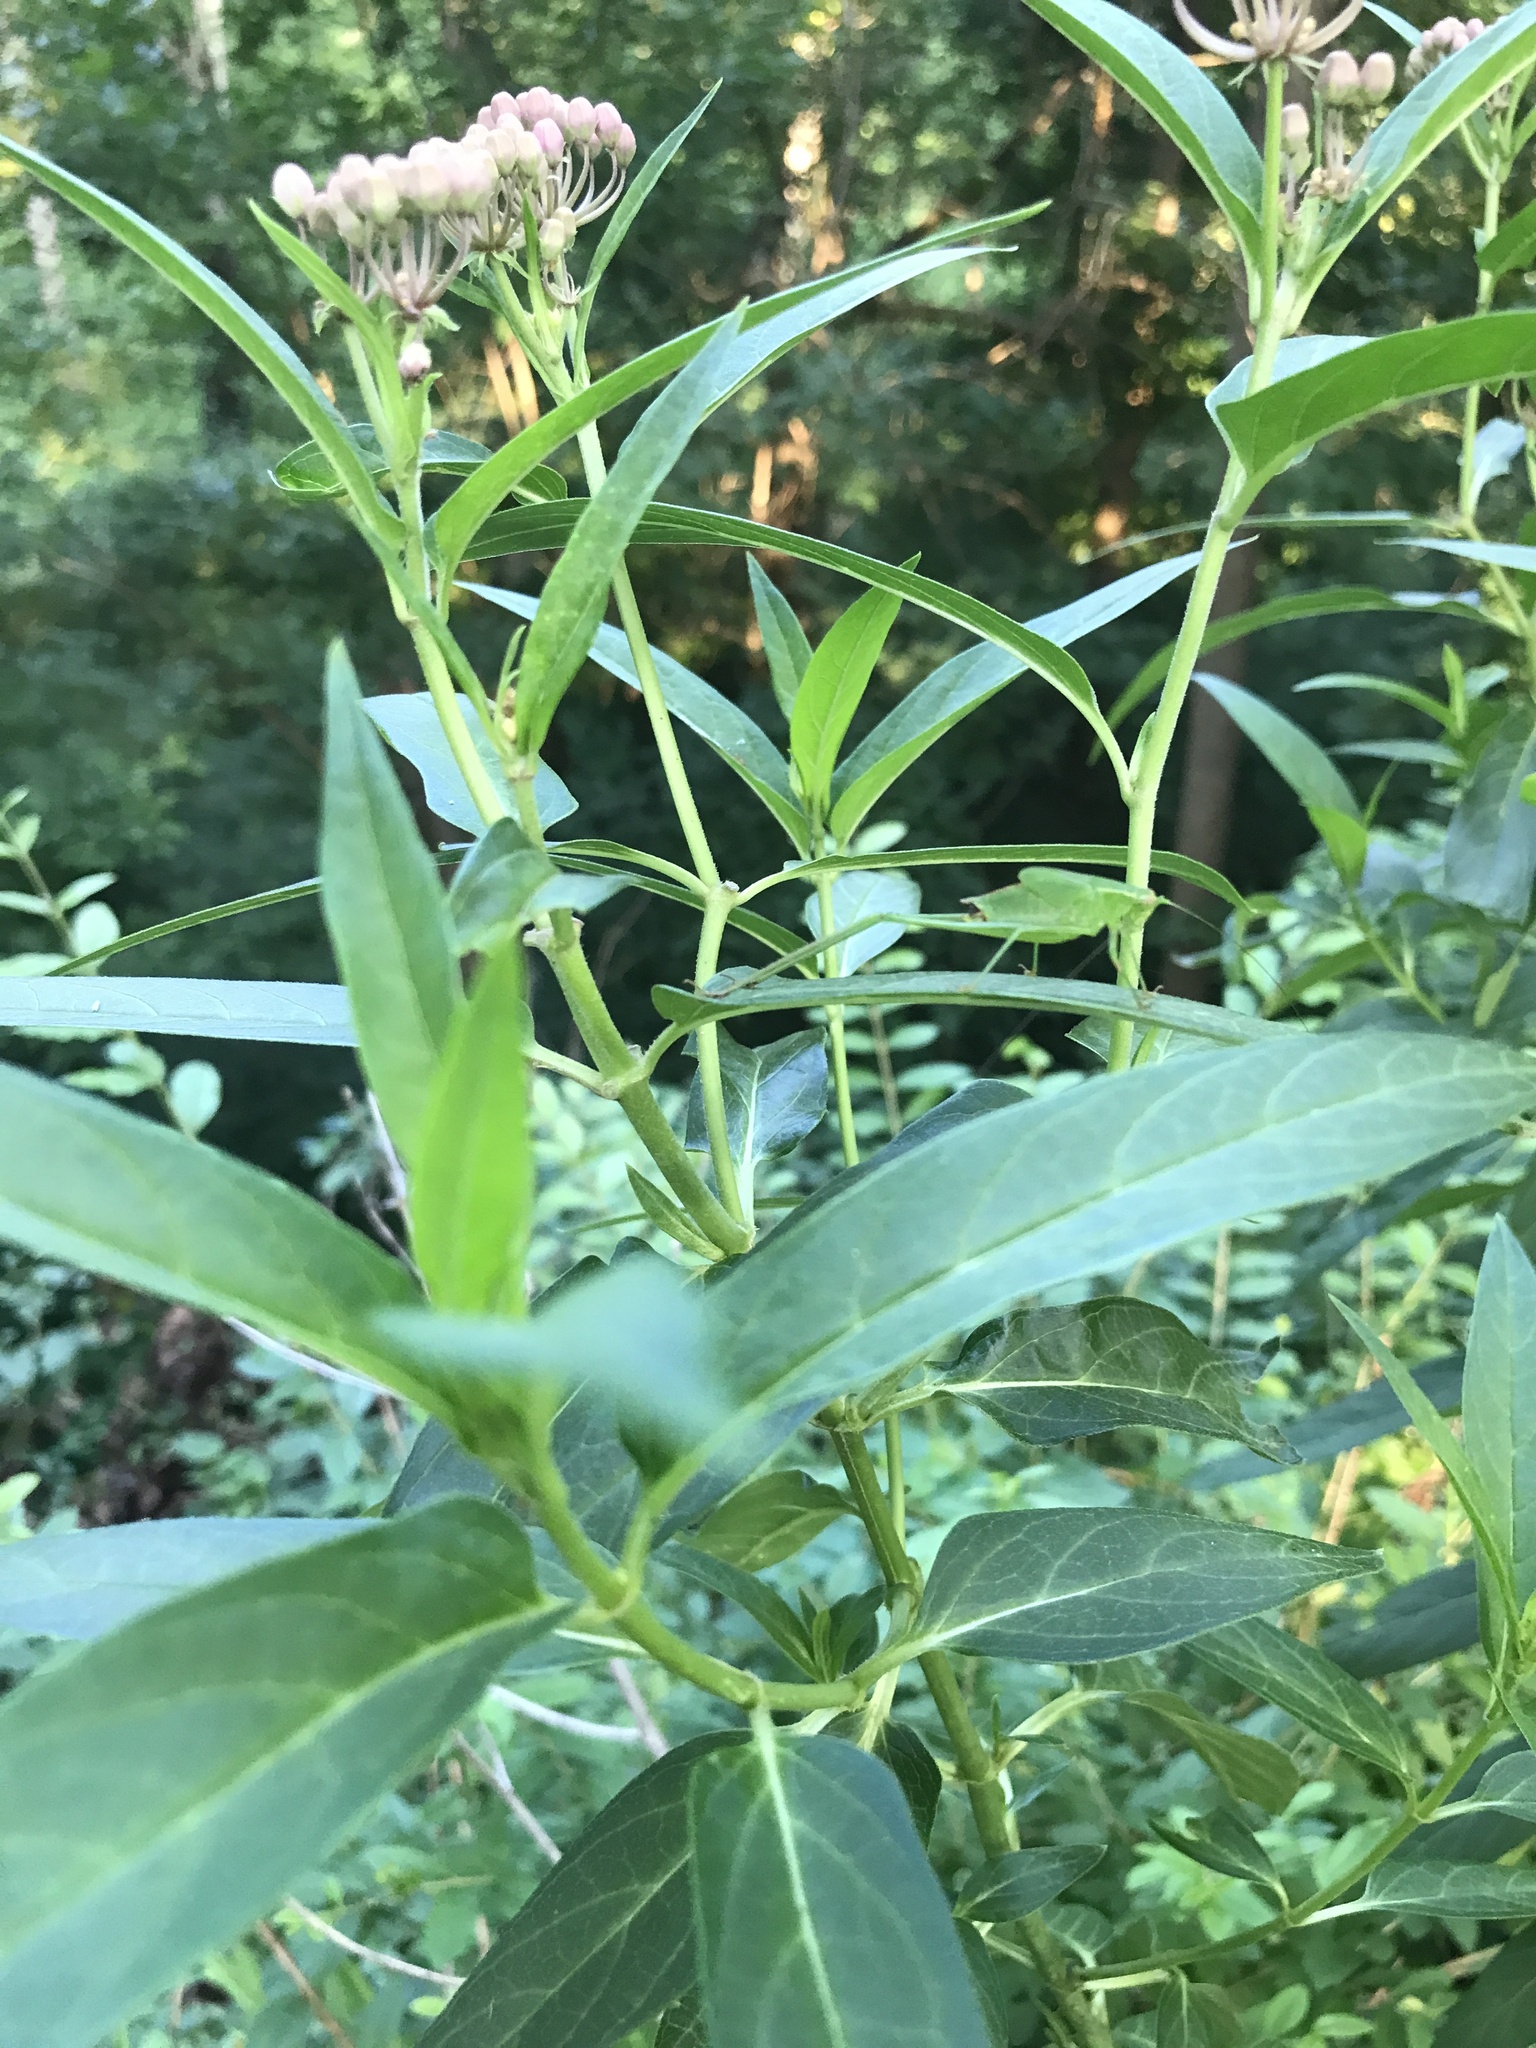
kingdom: Plantae
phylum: Tracheophyta
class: Magnoliopsida
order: Gentianales
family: Apocynaceae
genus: Asclepias
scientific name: Asclepias incarnata
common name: Swamp milkweed
